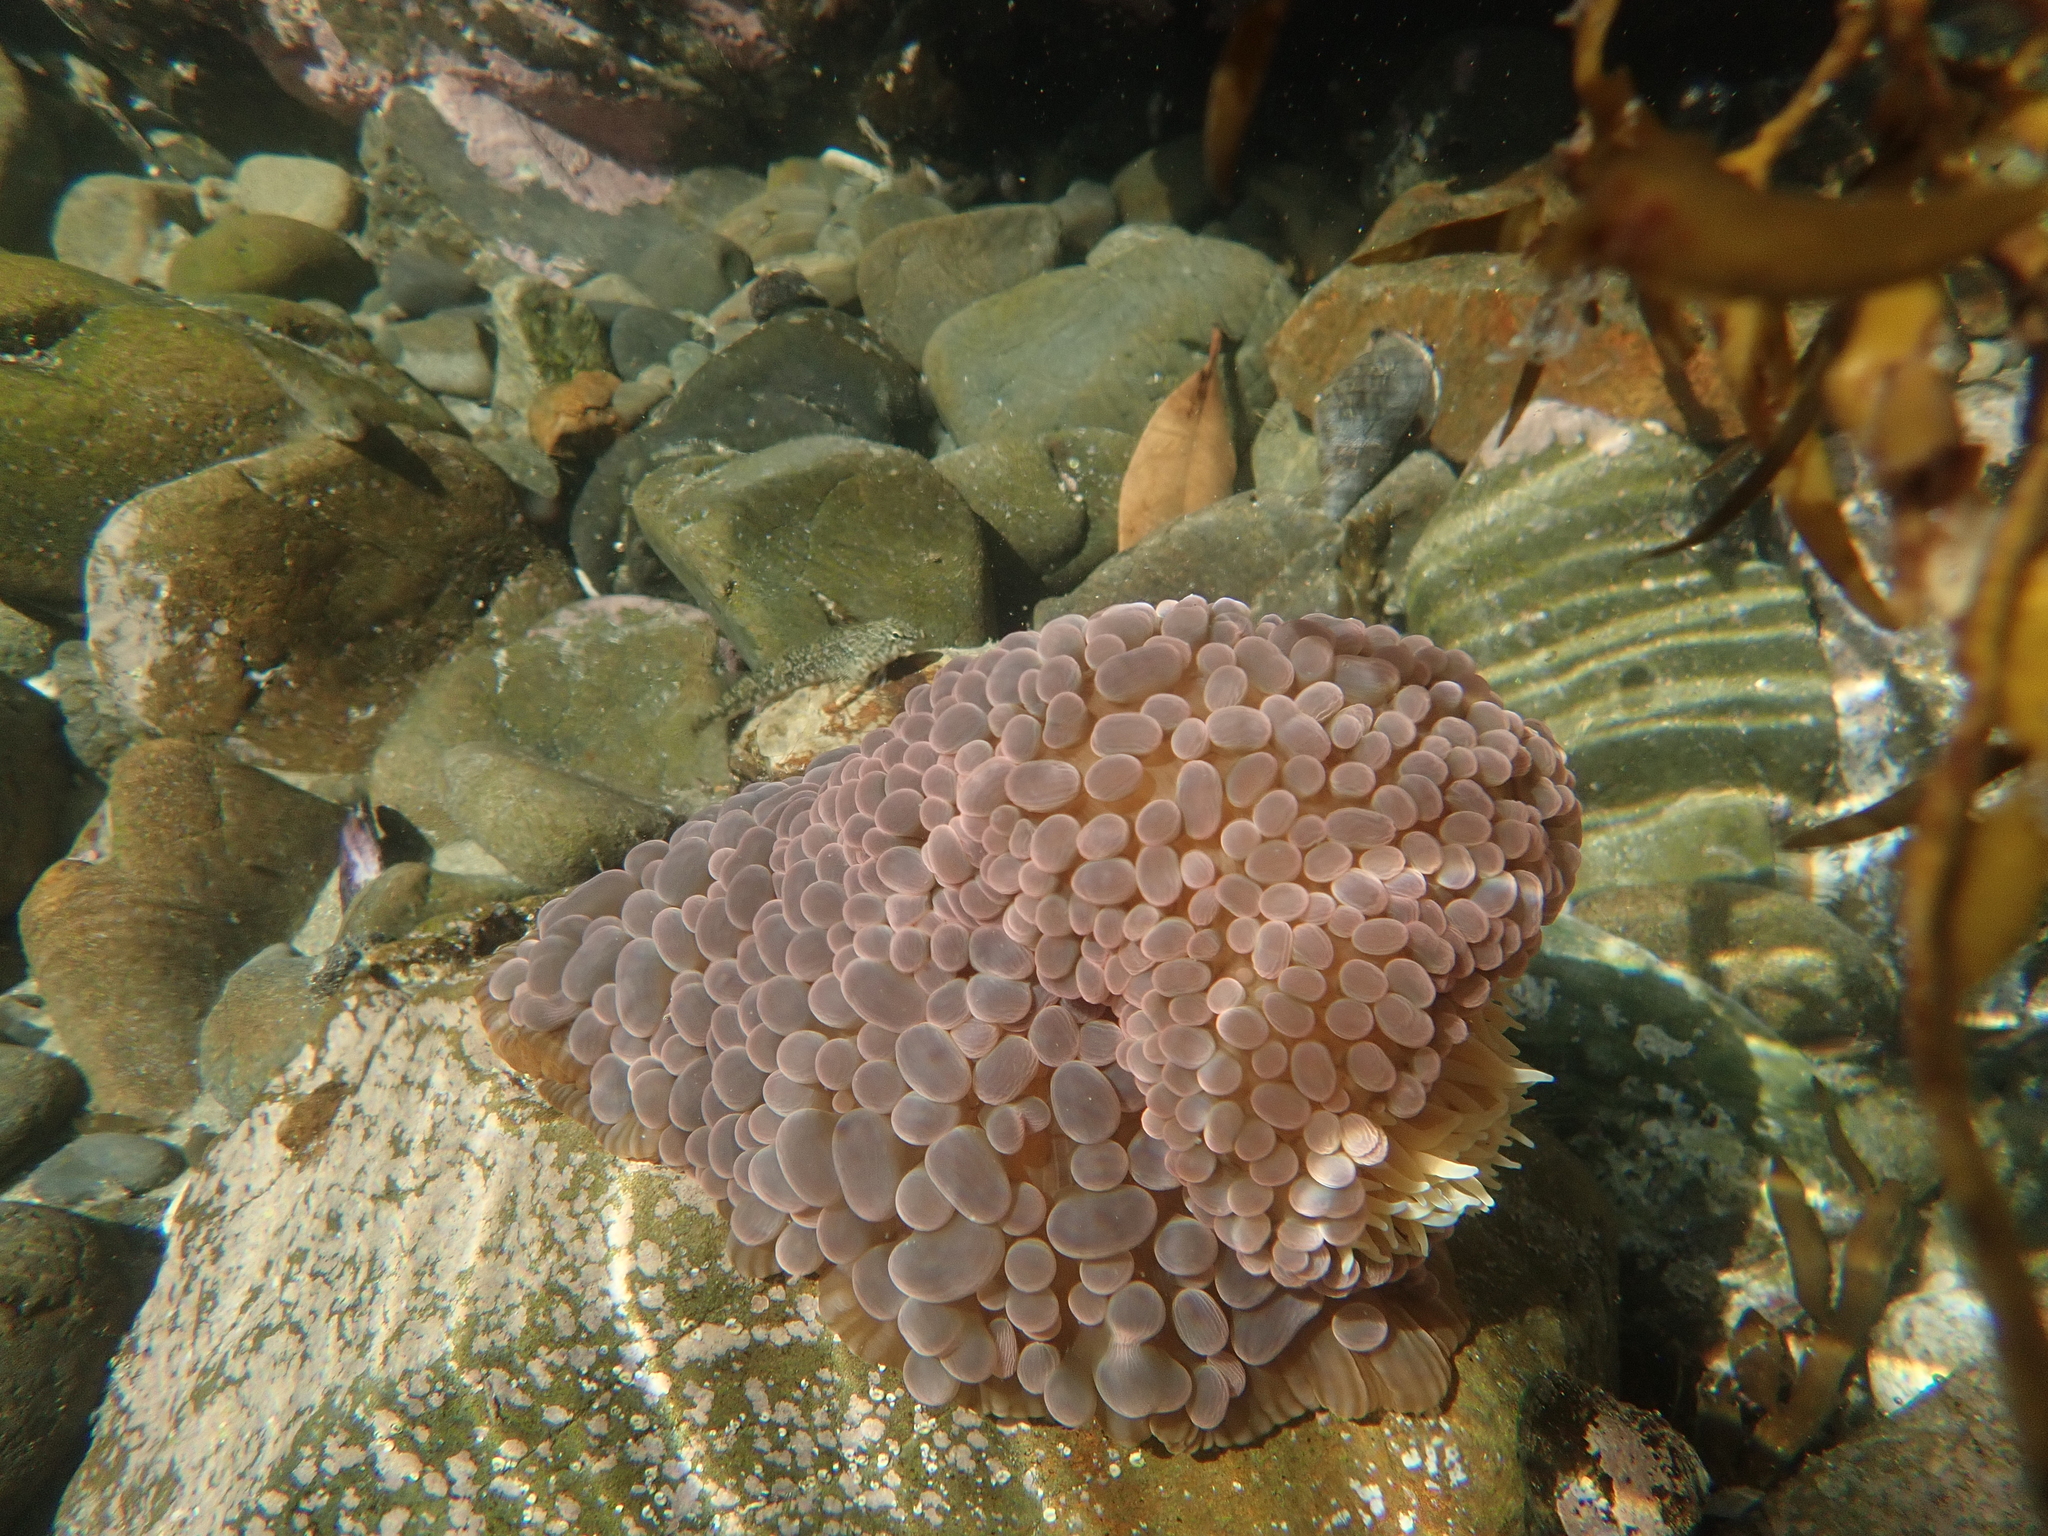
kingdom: Animalia
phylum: Cnidaria
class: Anthozoa
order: Actiniaria
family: Actiniidae
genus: Phlyctenactis
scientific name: Phlyctenactis tuberculosa
